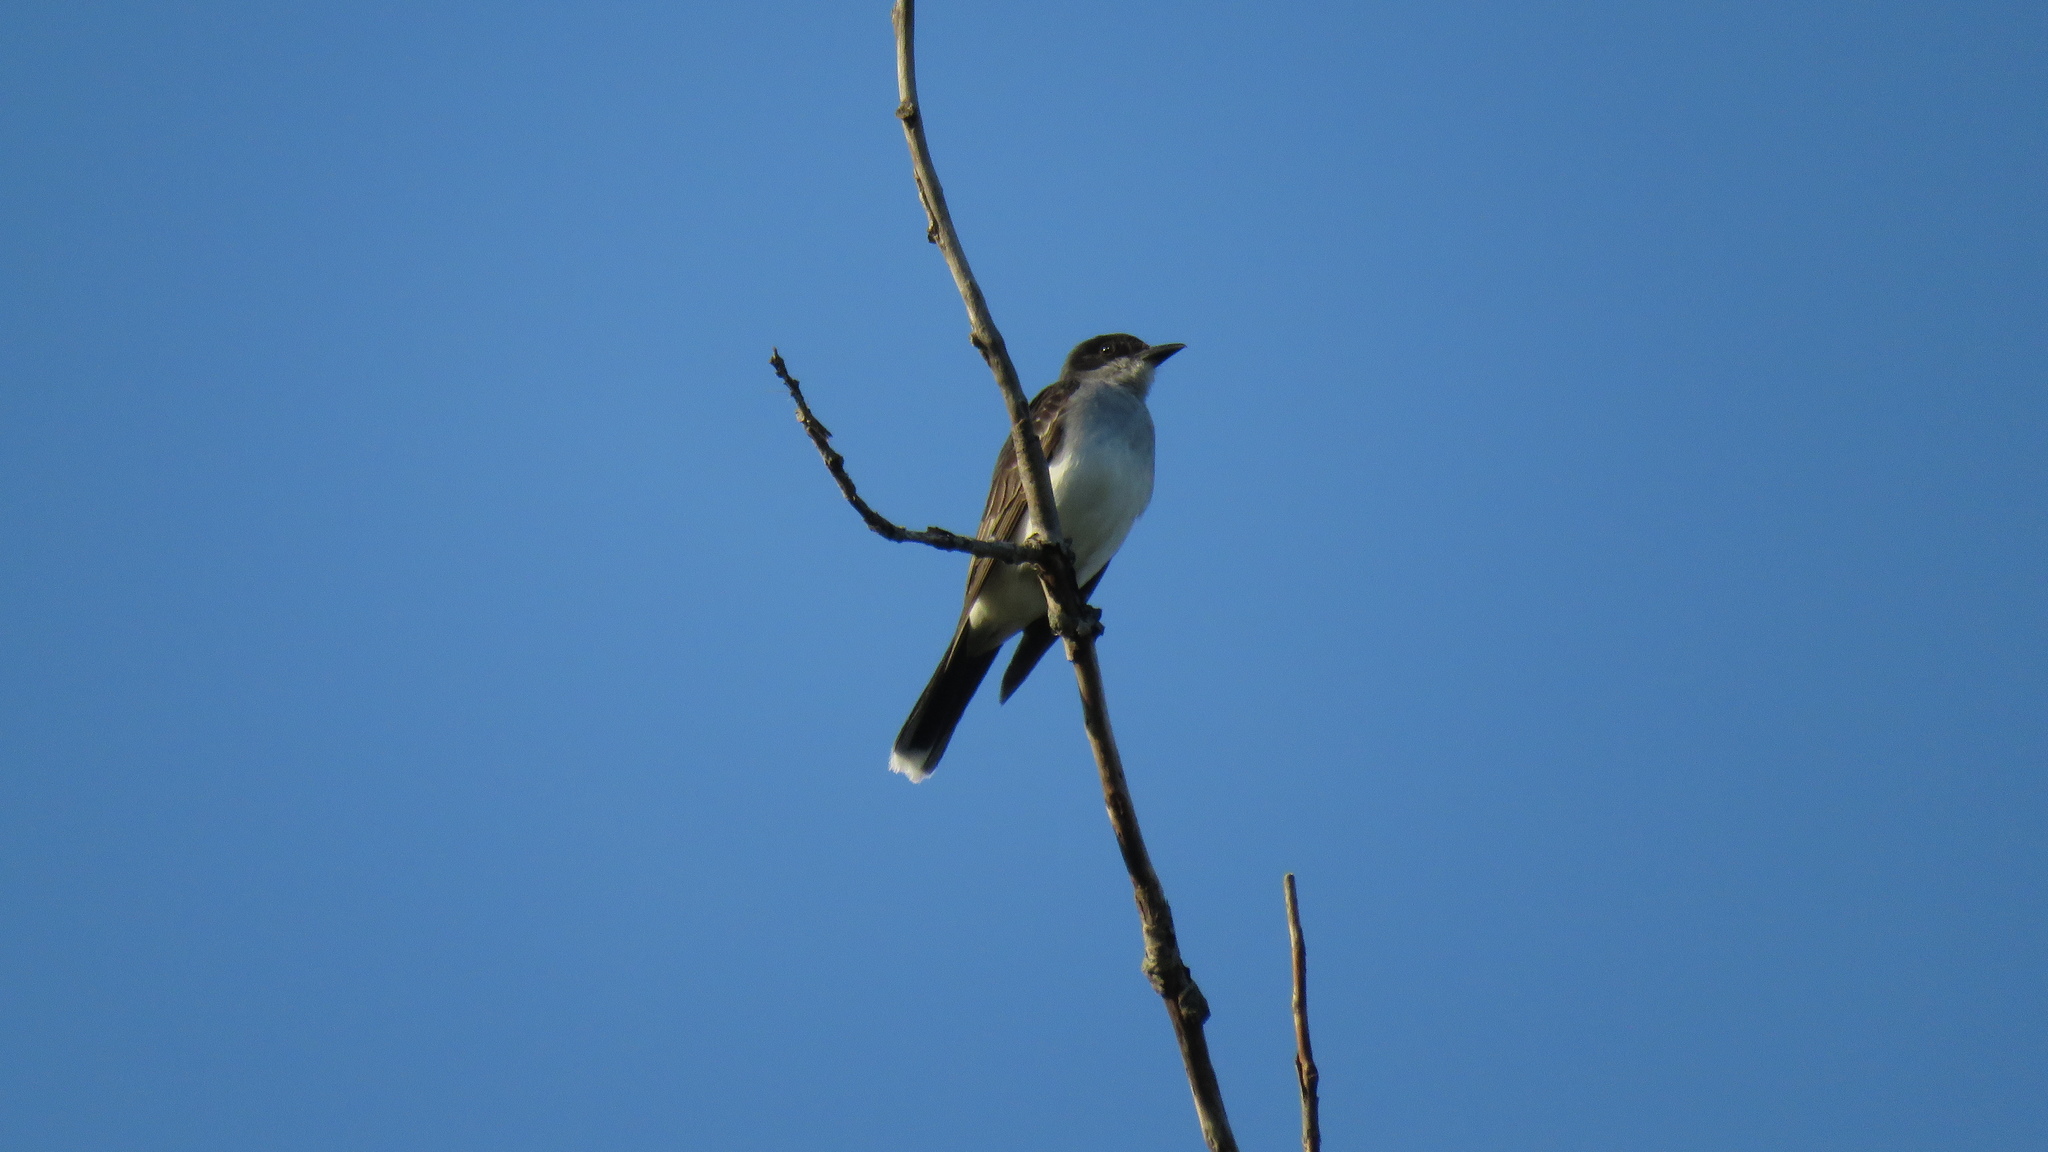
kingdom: Animalia
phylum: Chordata
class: Aves
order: Passeriformes
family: Tyrannidae
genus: Tyrannus
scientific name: Tyrannus tyrannus
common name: Eastern kingbird
